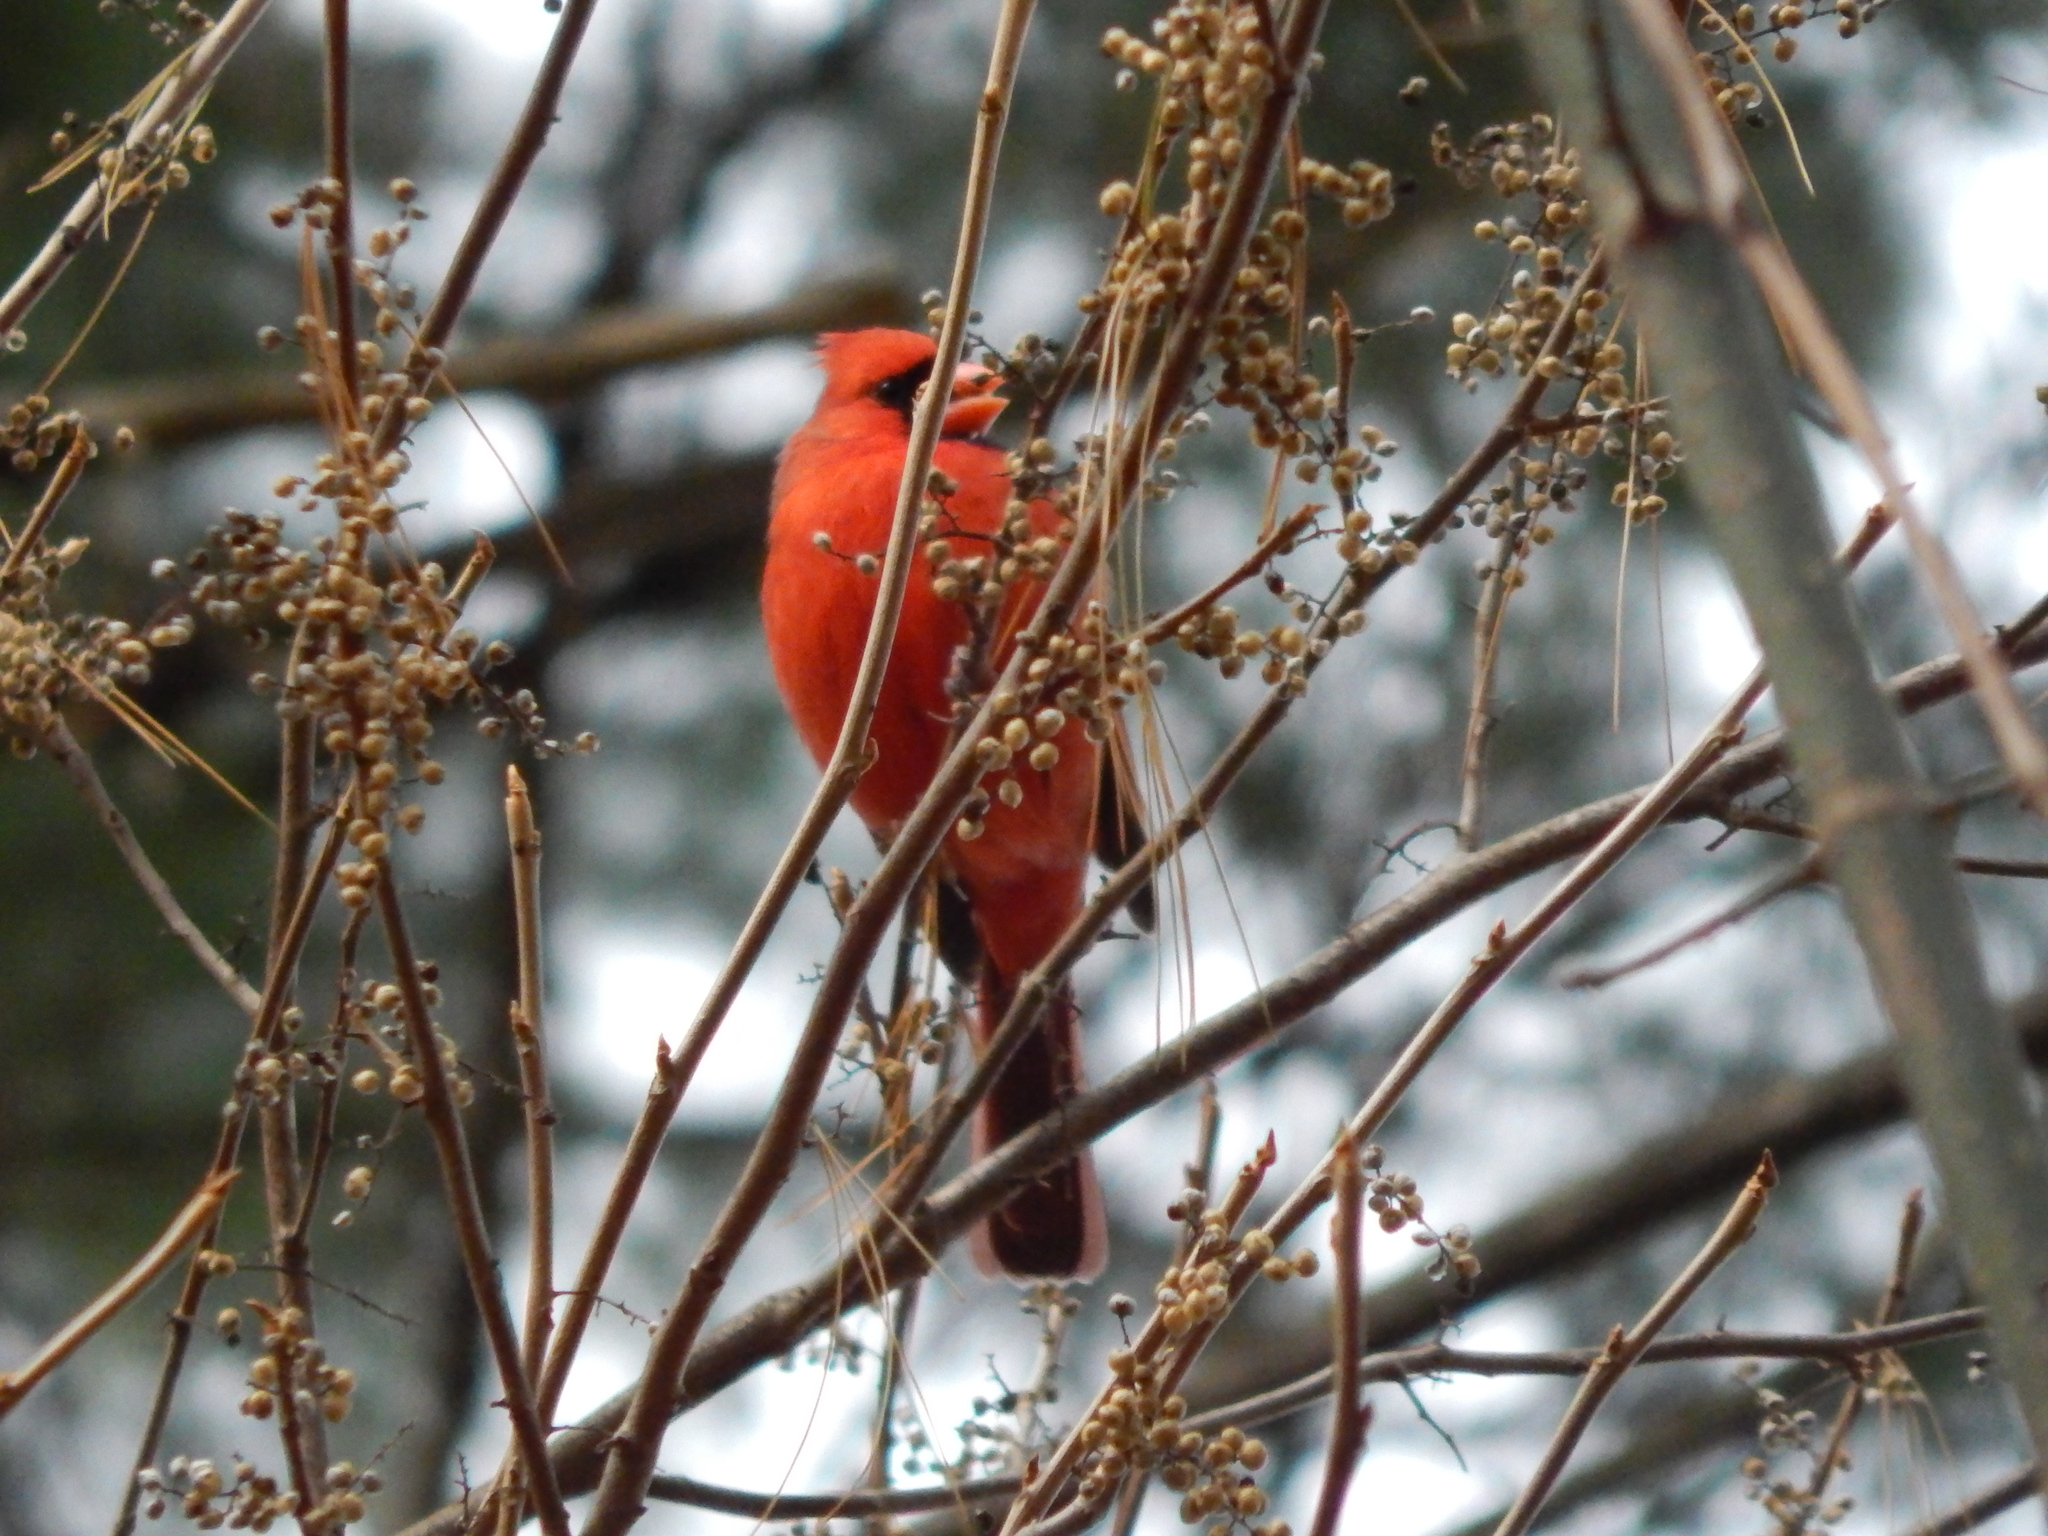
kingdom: Animalia
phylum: Chordata
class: Aves
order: Passeriformes
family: Cardinalidae
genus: Cardinalis
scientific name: Cardinalis cardinalis
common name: Northern cardinal
